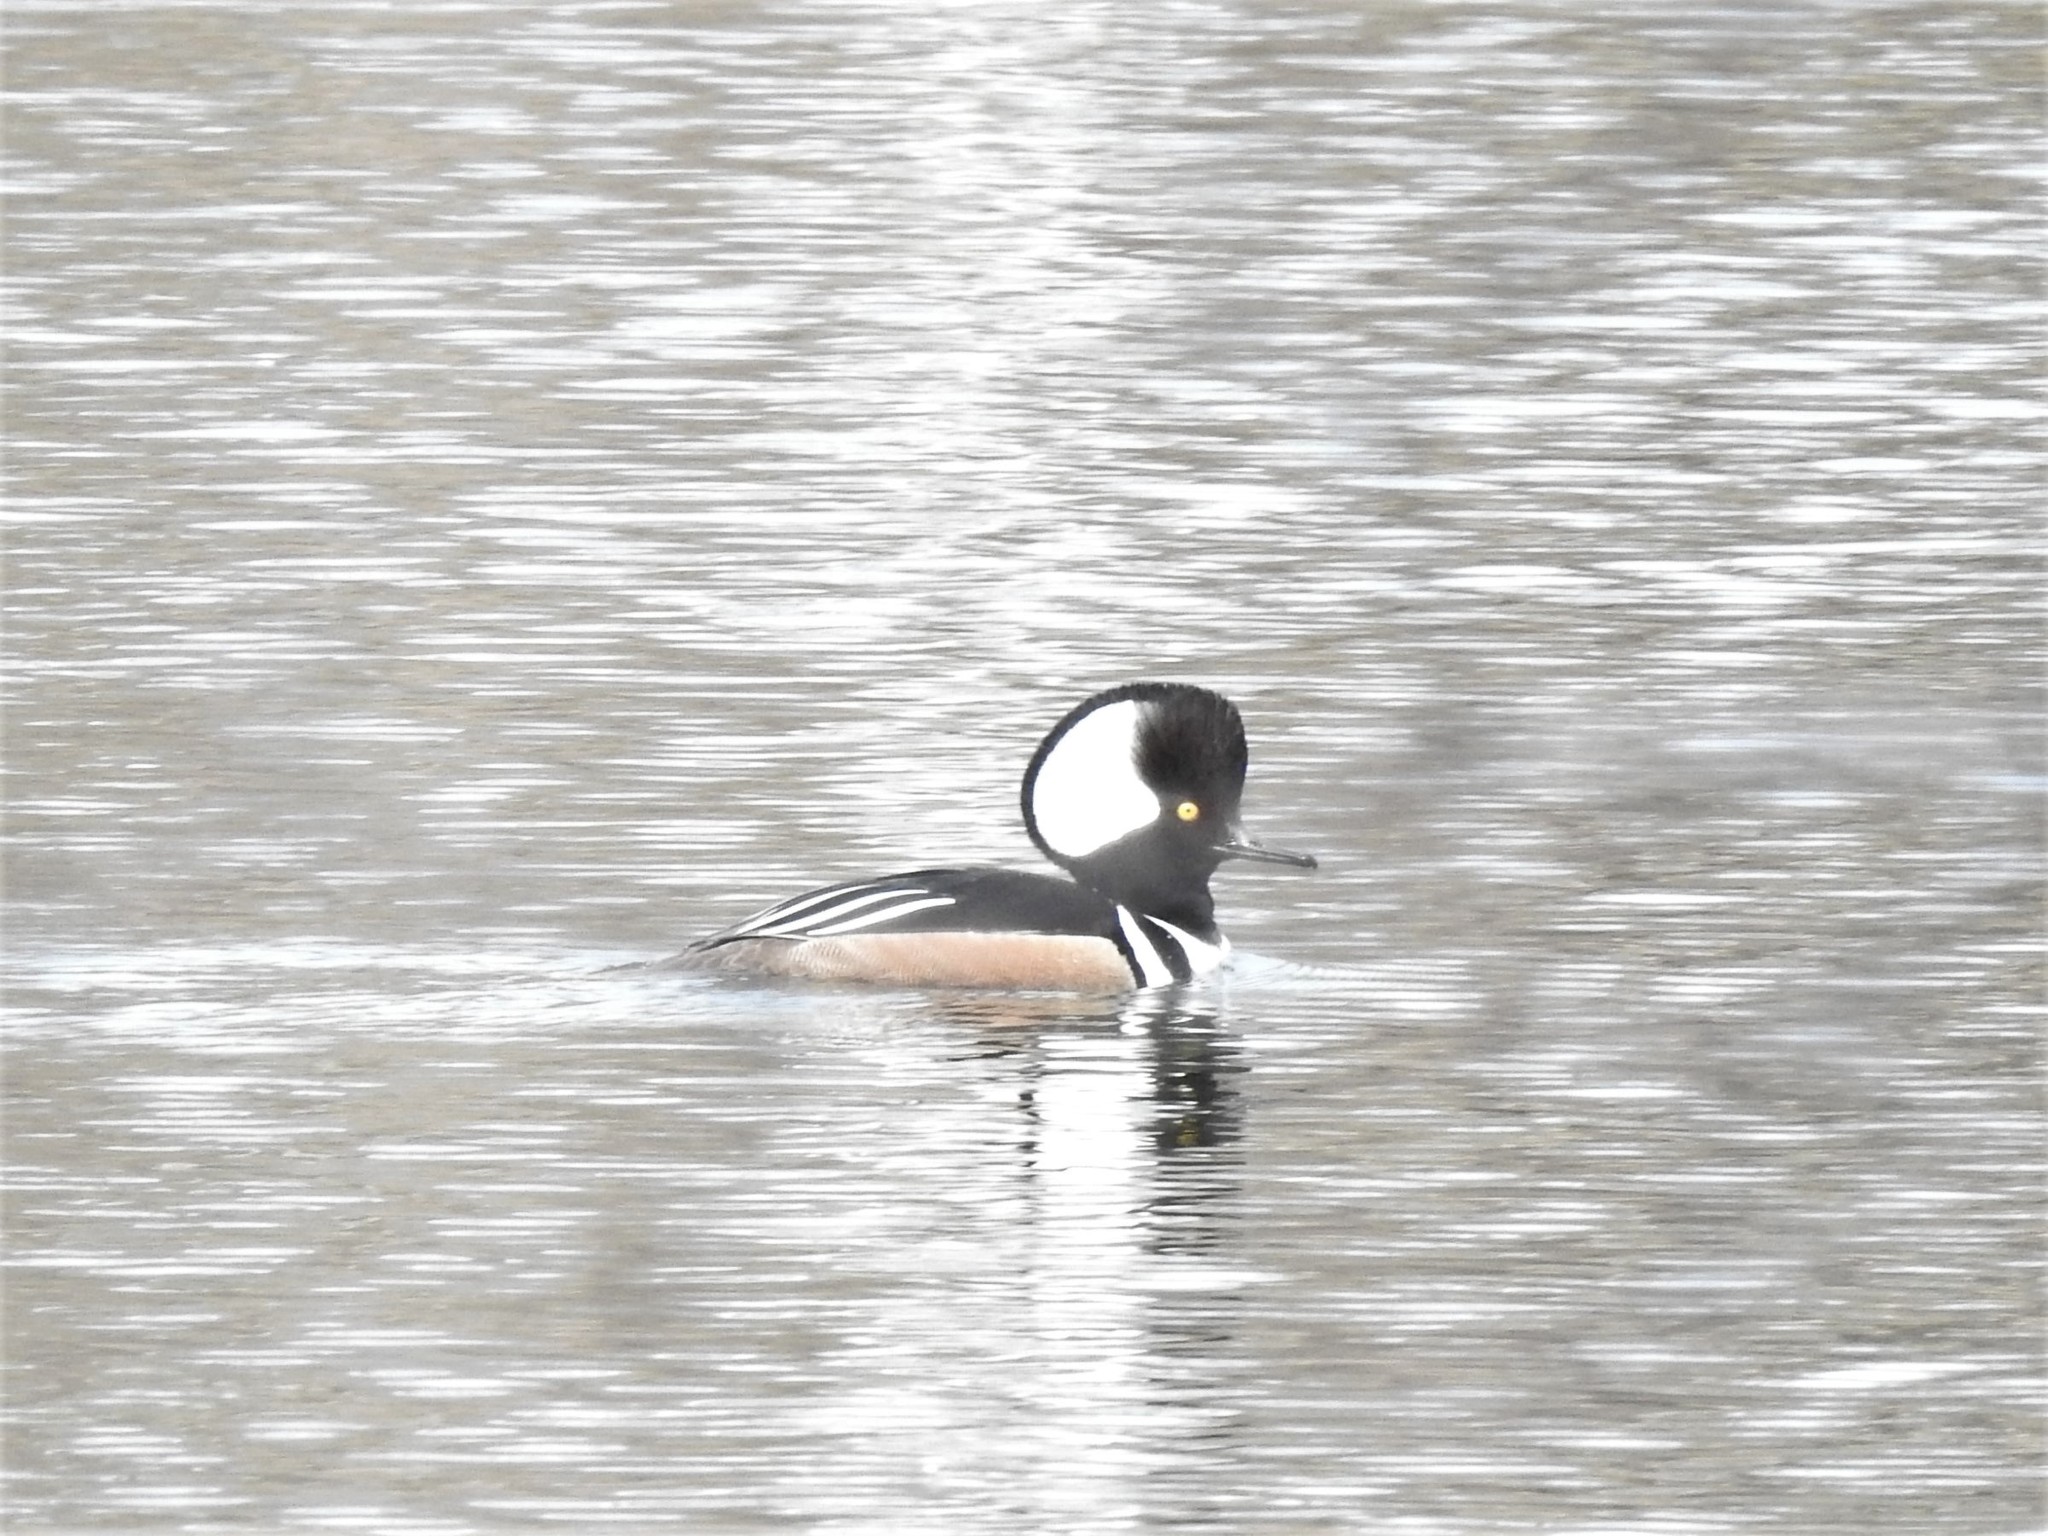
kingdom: Animalia
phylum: Chordata
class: Aves
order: Anseriformes
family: Anatidae
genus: Lophodytes
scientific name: Lophodytes cucullatus
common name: Hooded merganser
